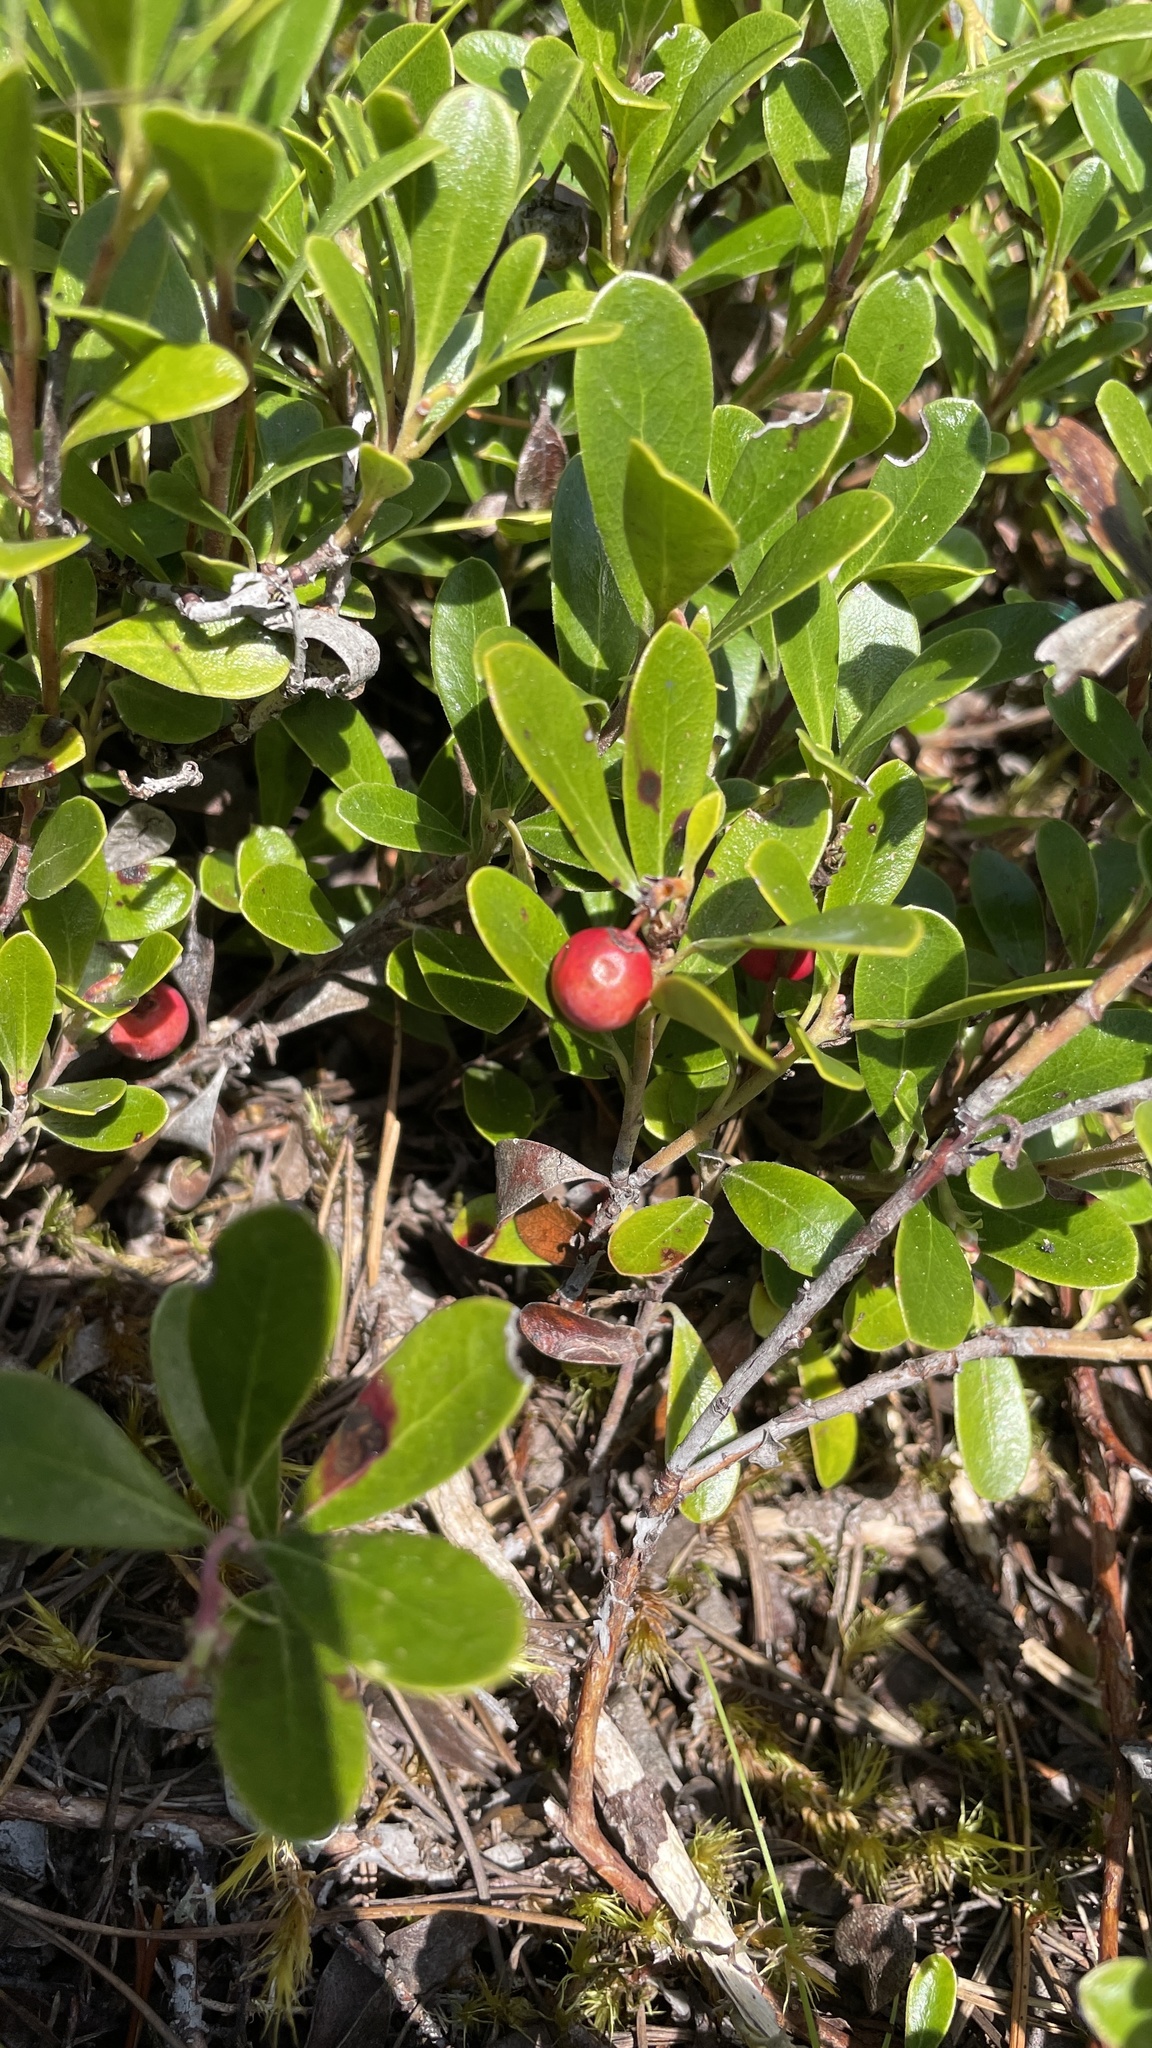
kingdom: Plantae
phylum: Tracheophyta
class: Magnoliopsida
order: Ericales
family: Ericaceae
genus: Arctostaphylos
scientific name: Arctostaphylos uva-ursi
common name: Bearberry
